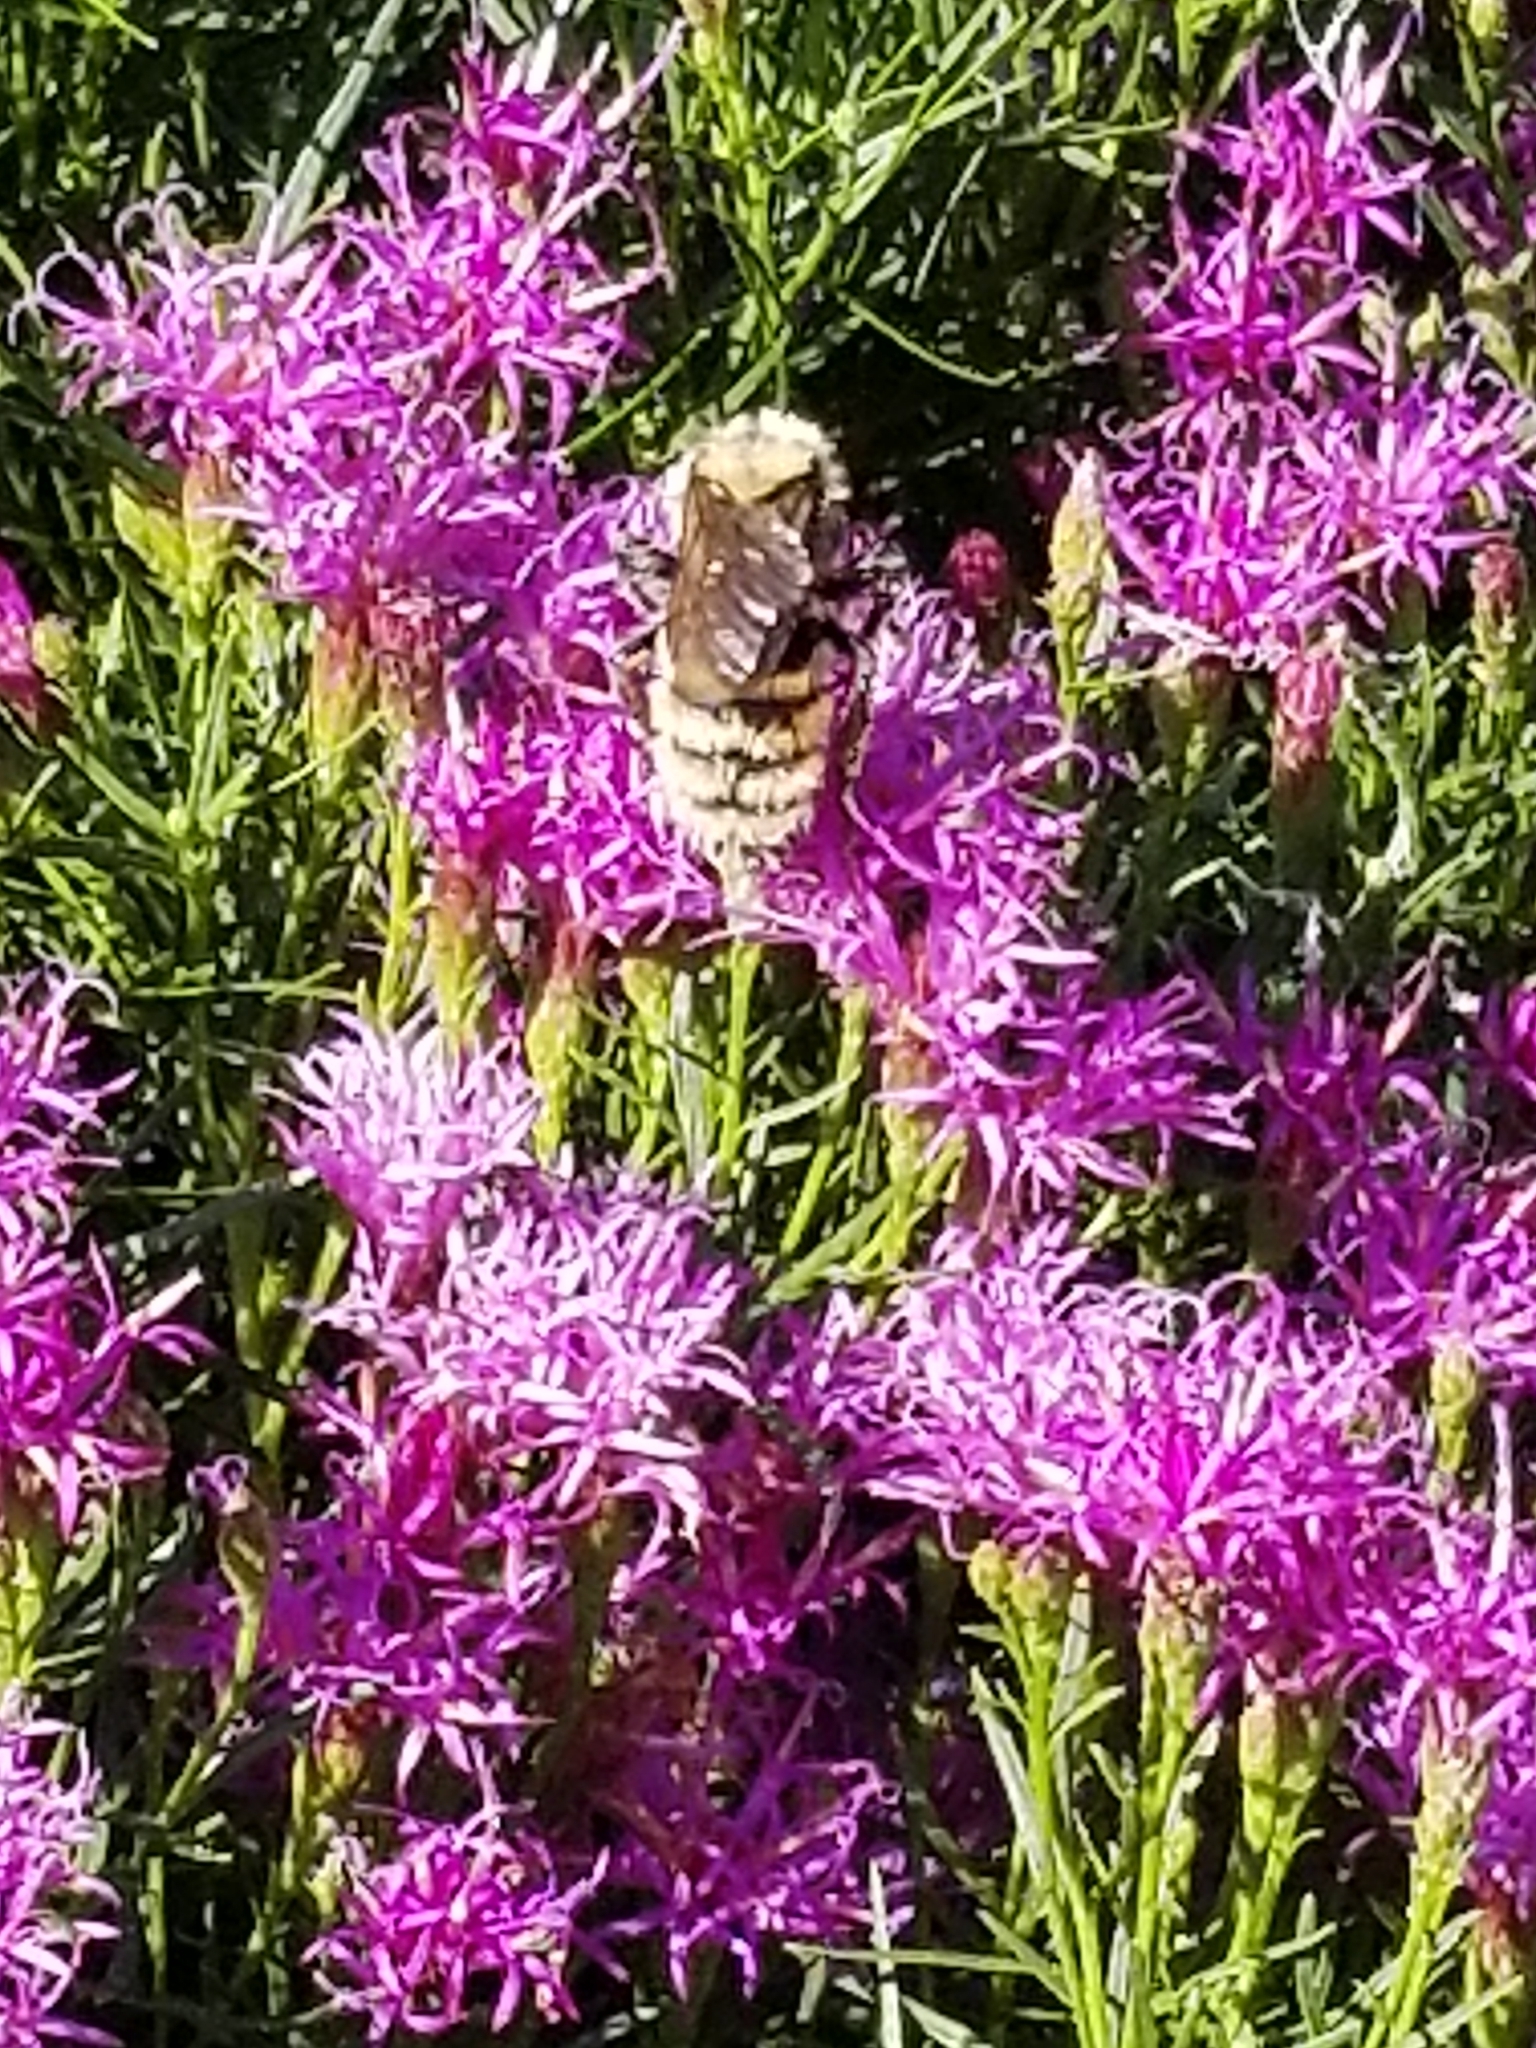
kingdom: Animalia
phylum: Arthropoda
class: Insecta
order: Hymenoptera
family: Apidae
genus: Bombus
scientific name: Bombus fervidus
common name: Yellow bumble bee
